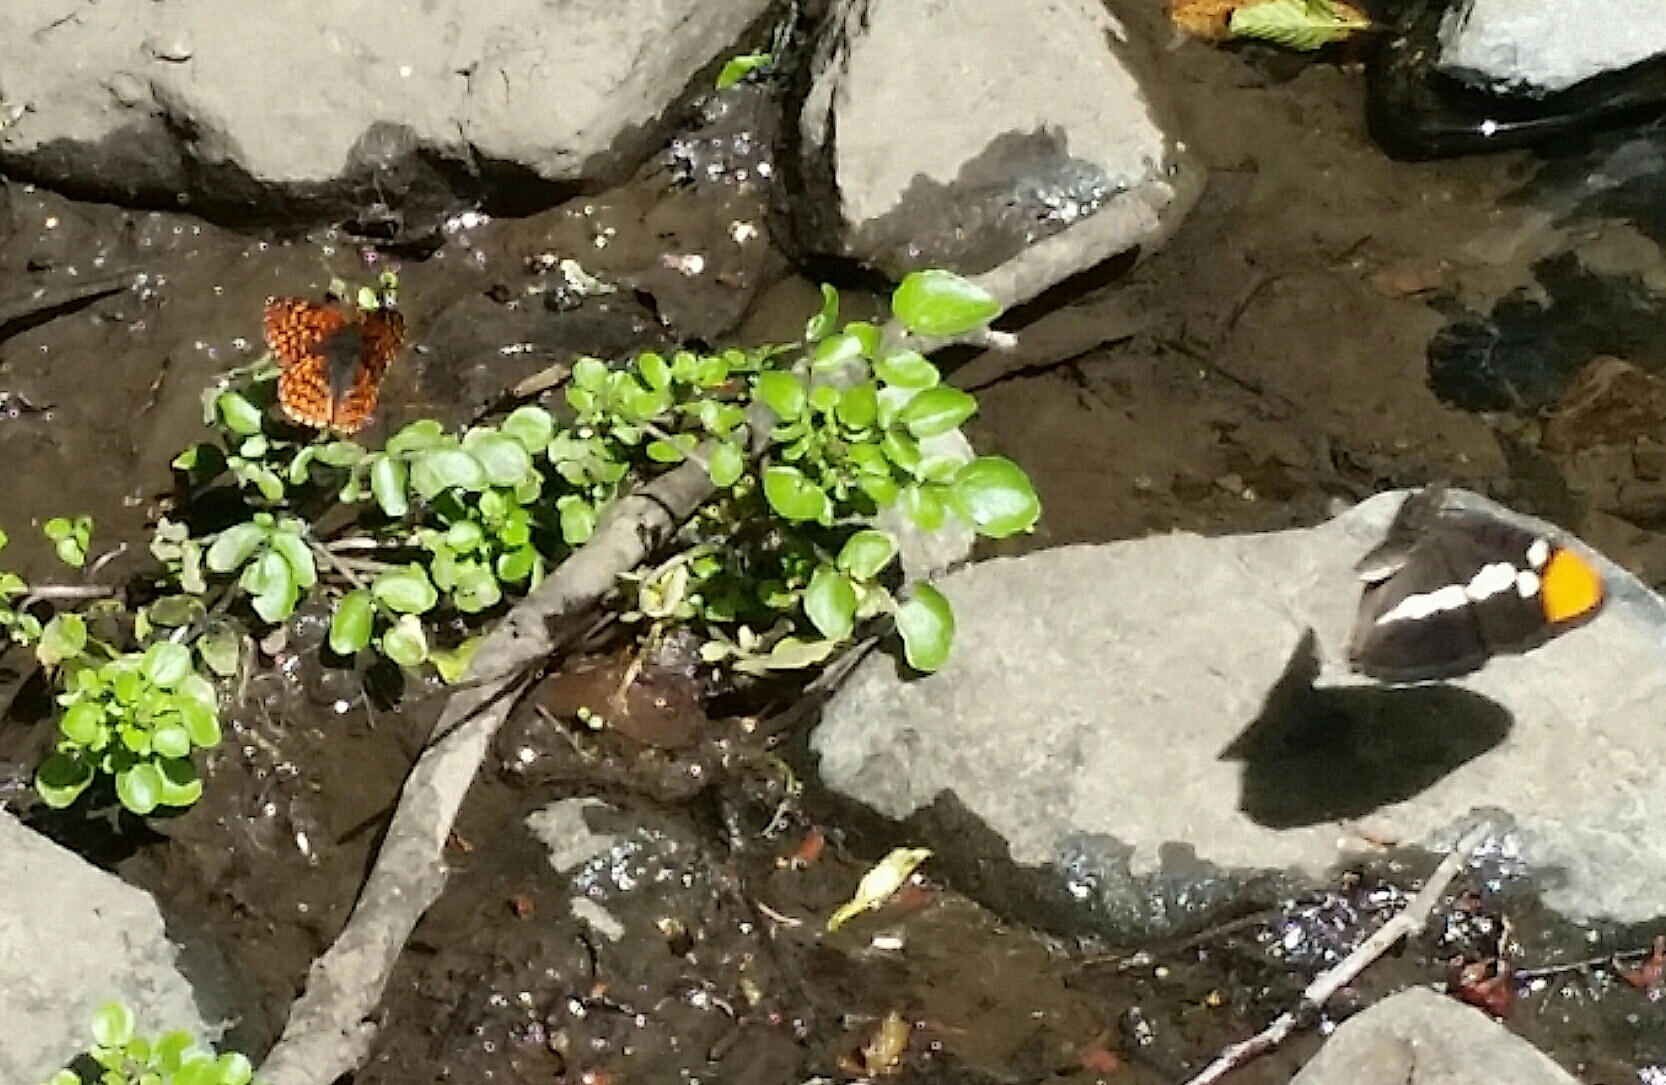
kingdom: Animalia
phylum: Arthropoda
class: Insecta
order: Lepidoptera
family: Nymphalidae
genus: Limenitis
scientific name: Limenitis bredowii
